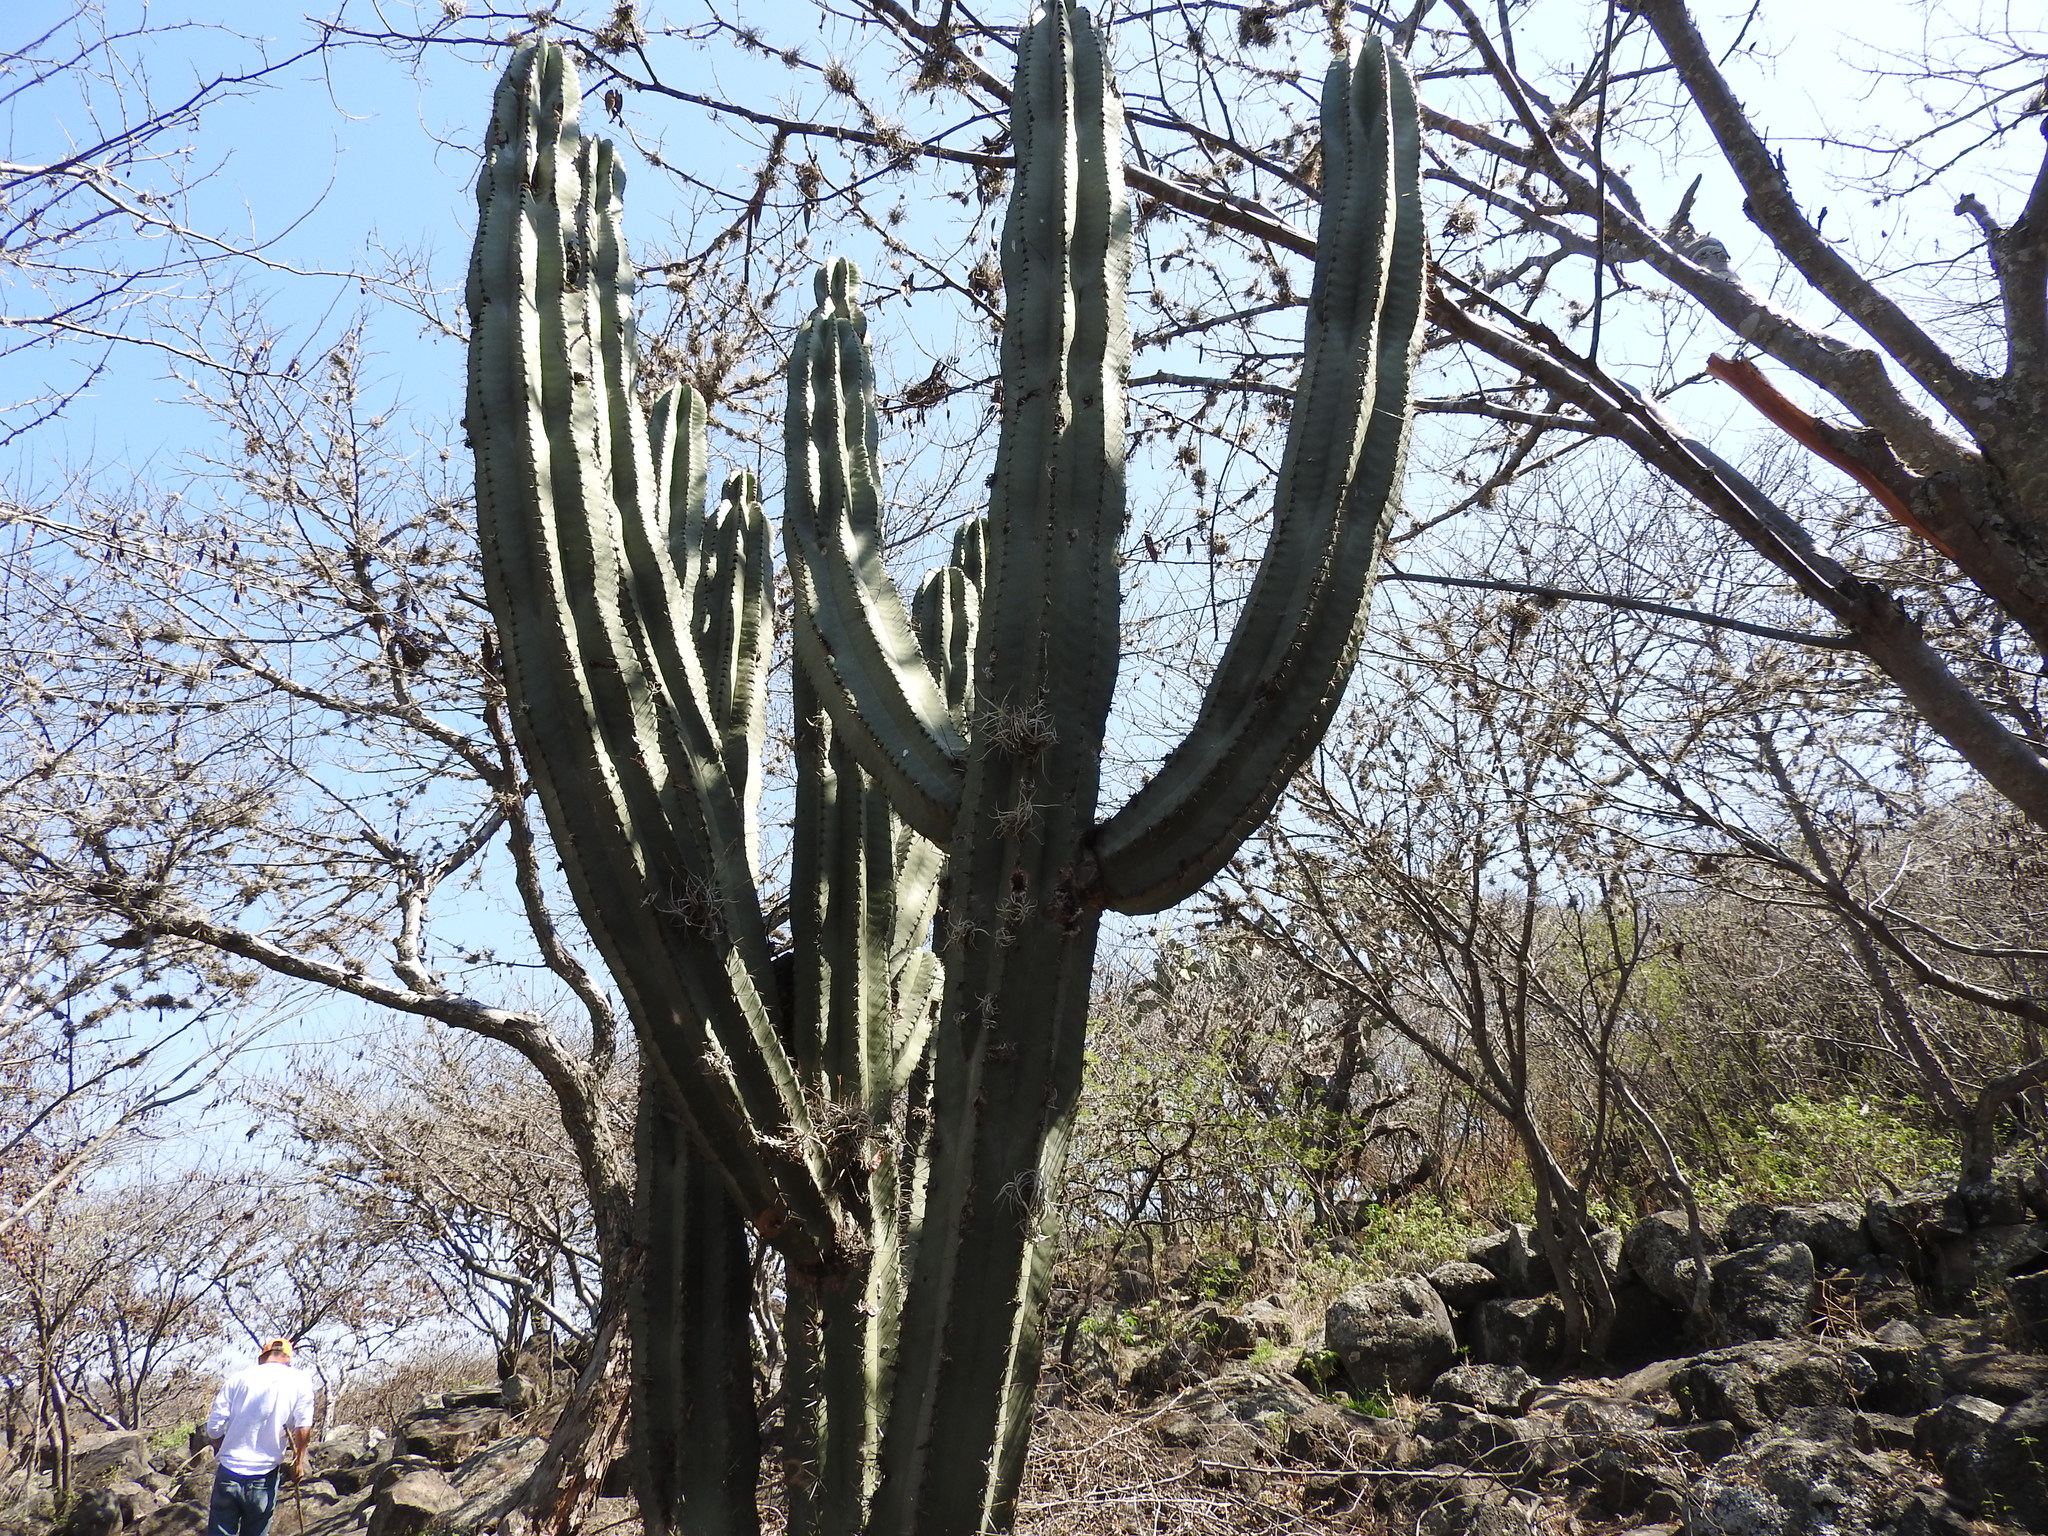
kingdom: Plantae
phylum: Tracheophyta
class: Magnoliopsida
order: Caryophyllales
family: Cactaceae
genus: Stenocereus
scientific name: Stenocereus queretaroensis
